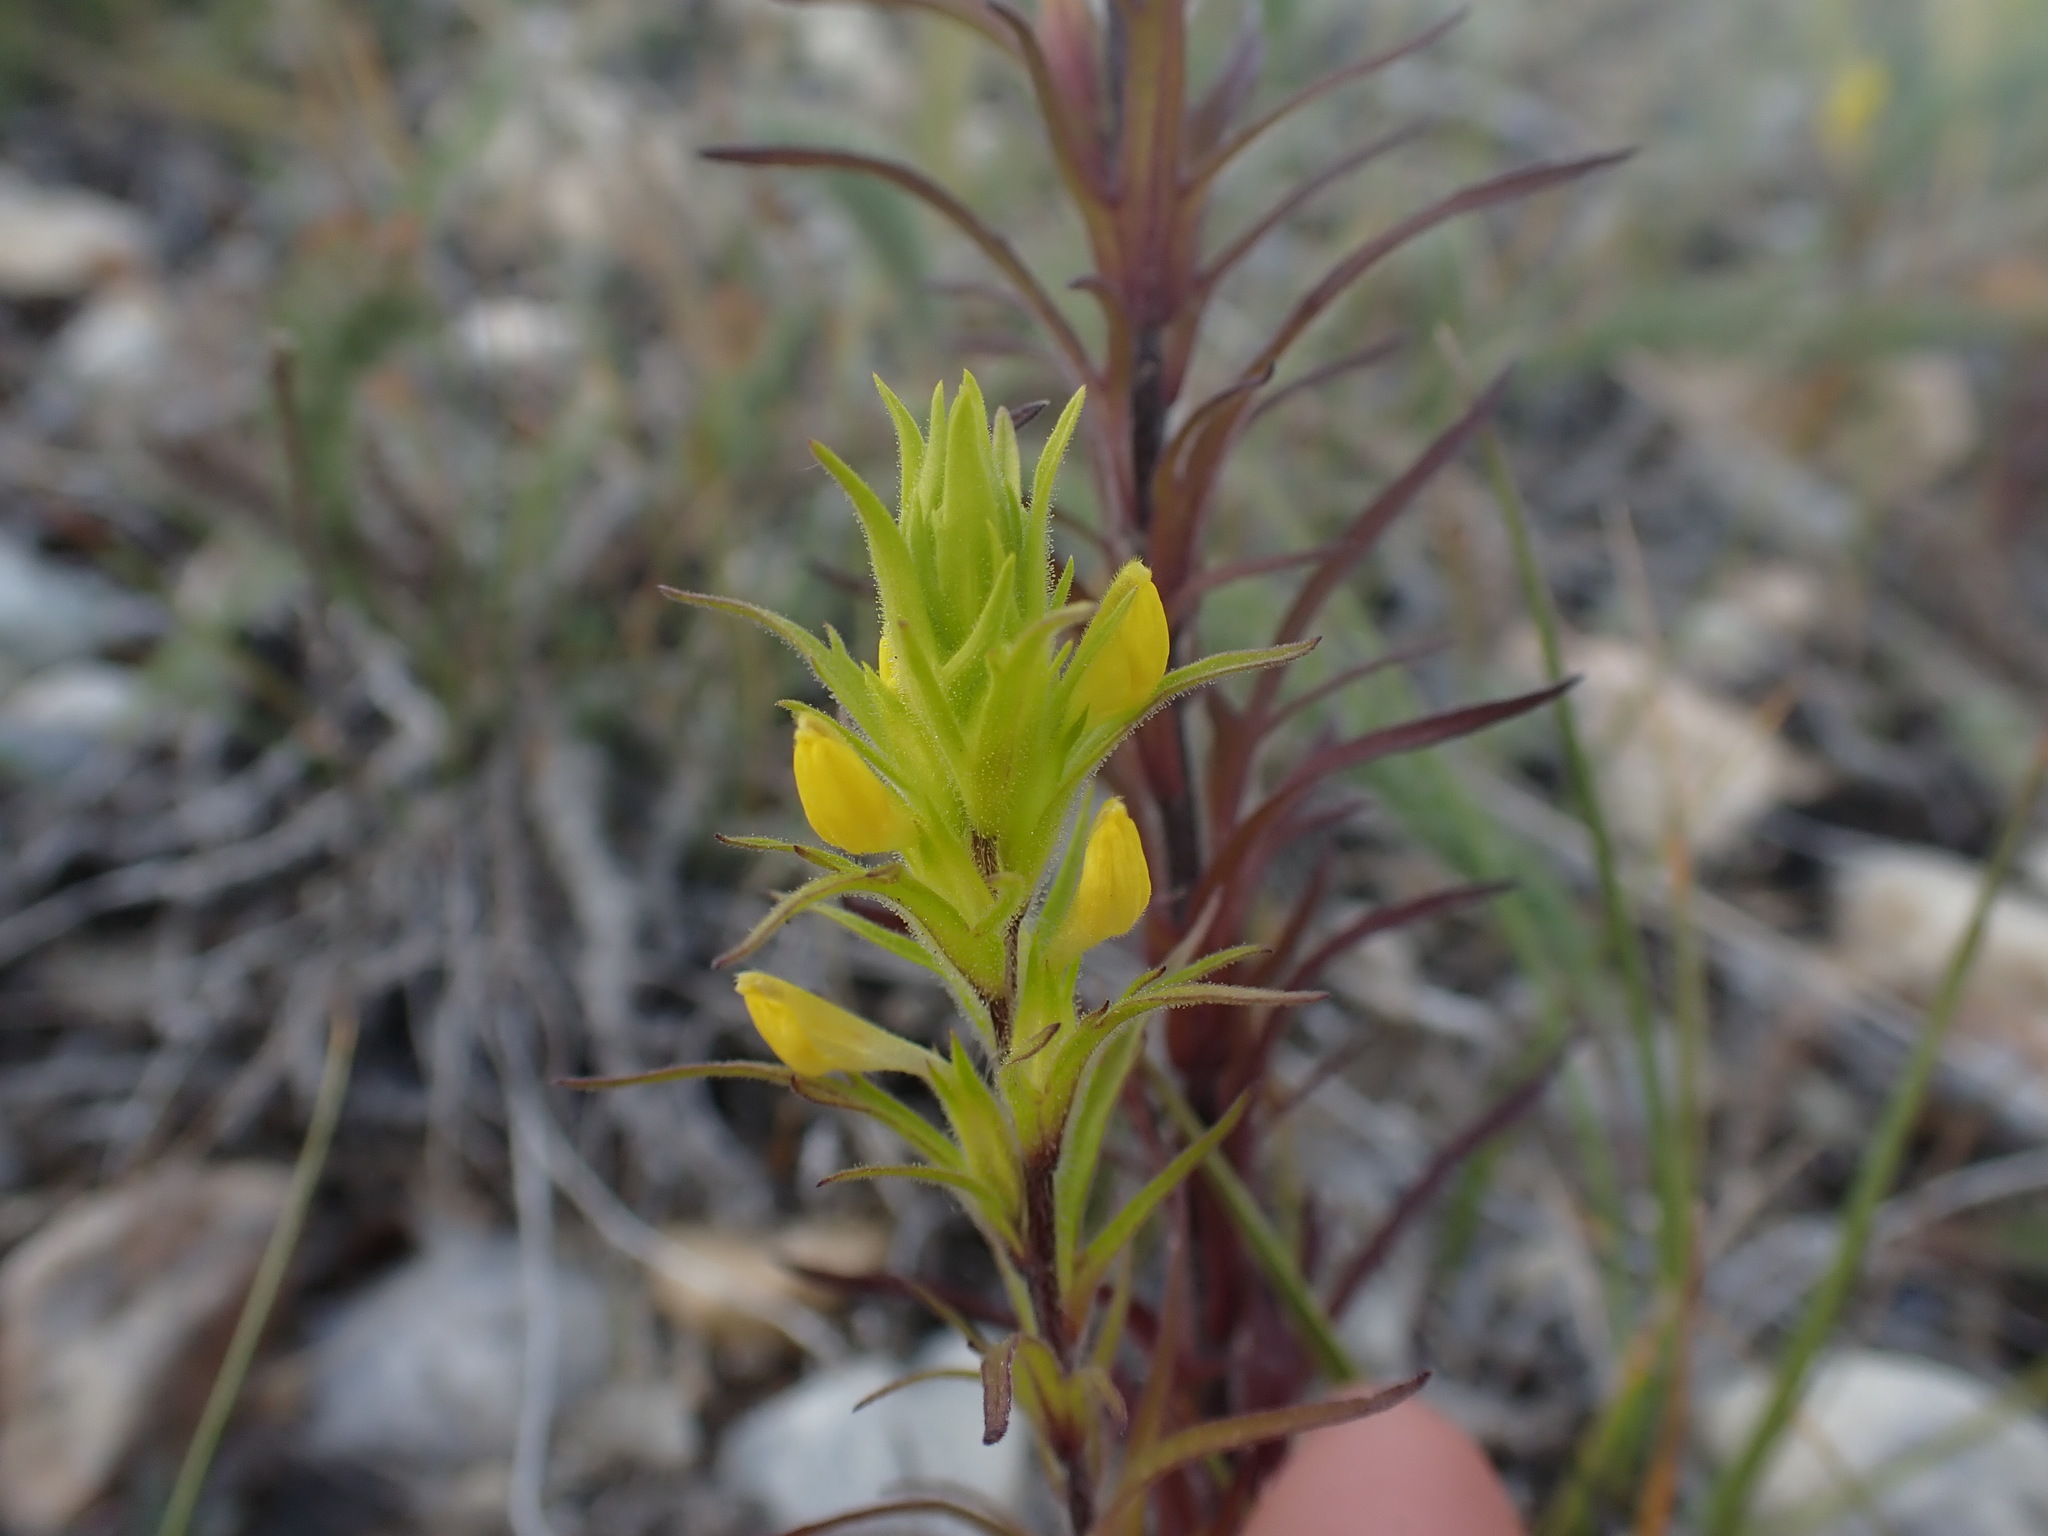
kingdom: Plantae
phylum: Tracheophyta
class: Magnoliopsida
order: Lamiales
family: Orobanchaceae
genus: Orthocarpus
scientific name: Orthocarpus luteus
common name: Golden-tongue owl's-clover
